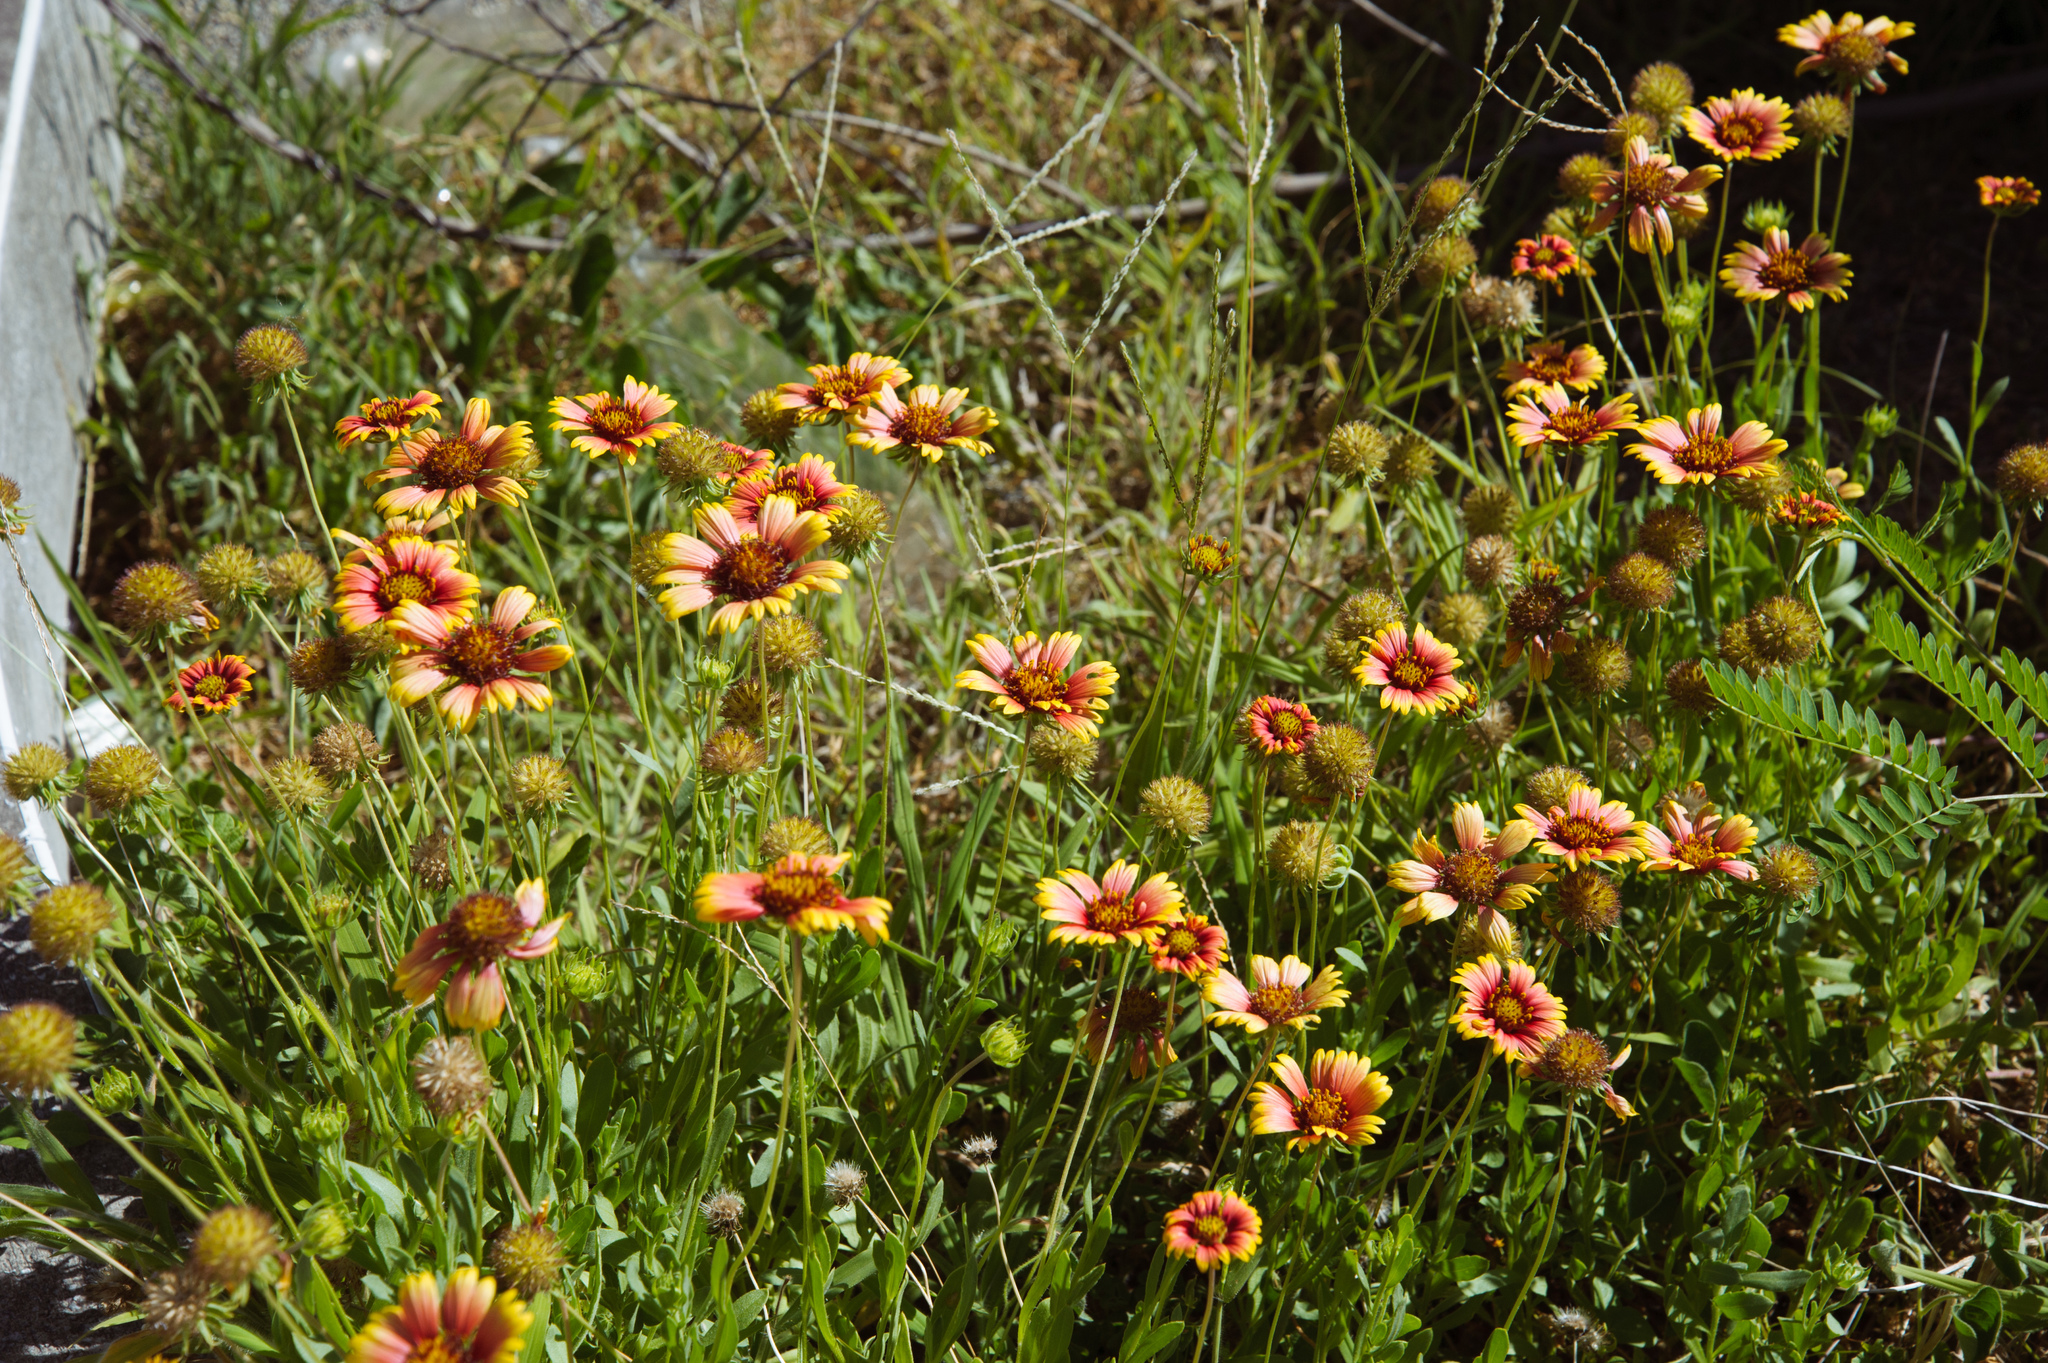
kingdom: Plantae
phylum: Tracheophyta
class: Magnoliopsida
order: Asterales
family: Asteraceae
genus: Gaillardia
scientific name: Gaillardia pulchella
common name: Firewheel
